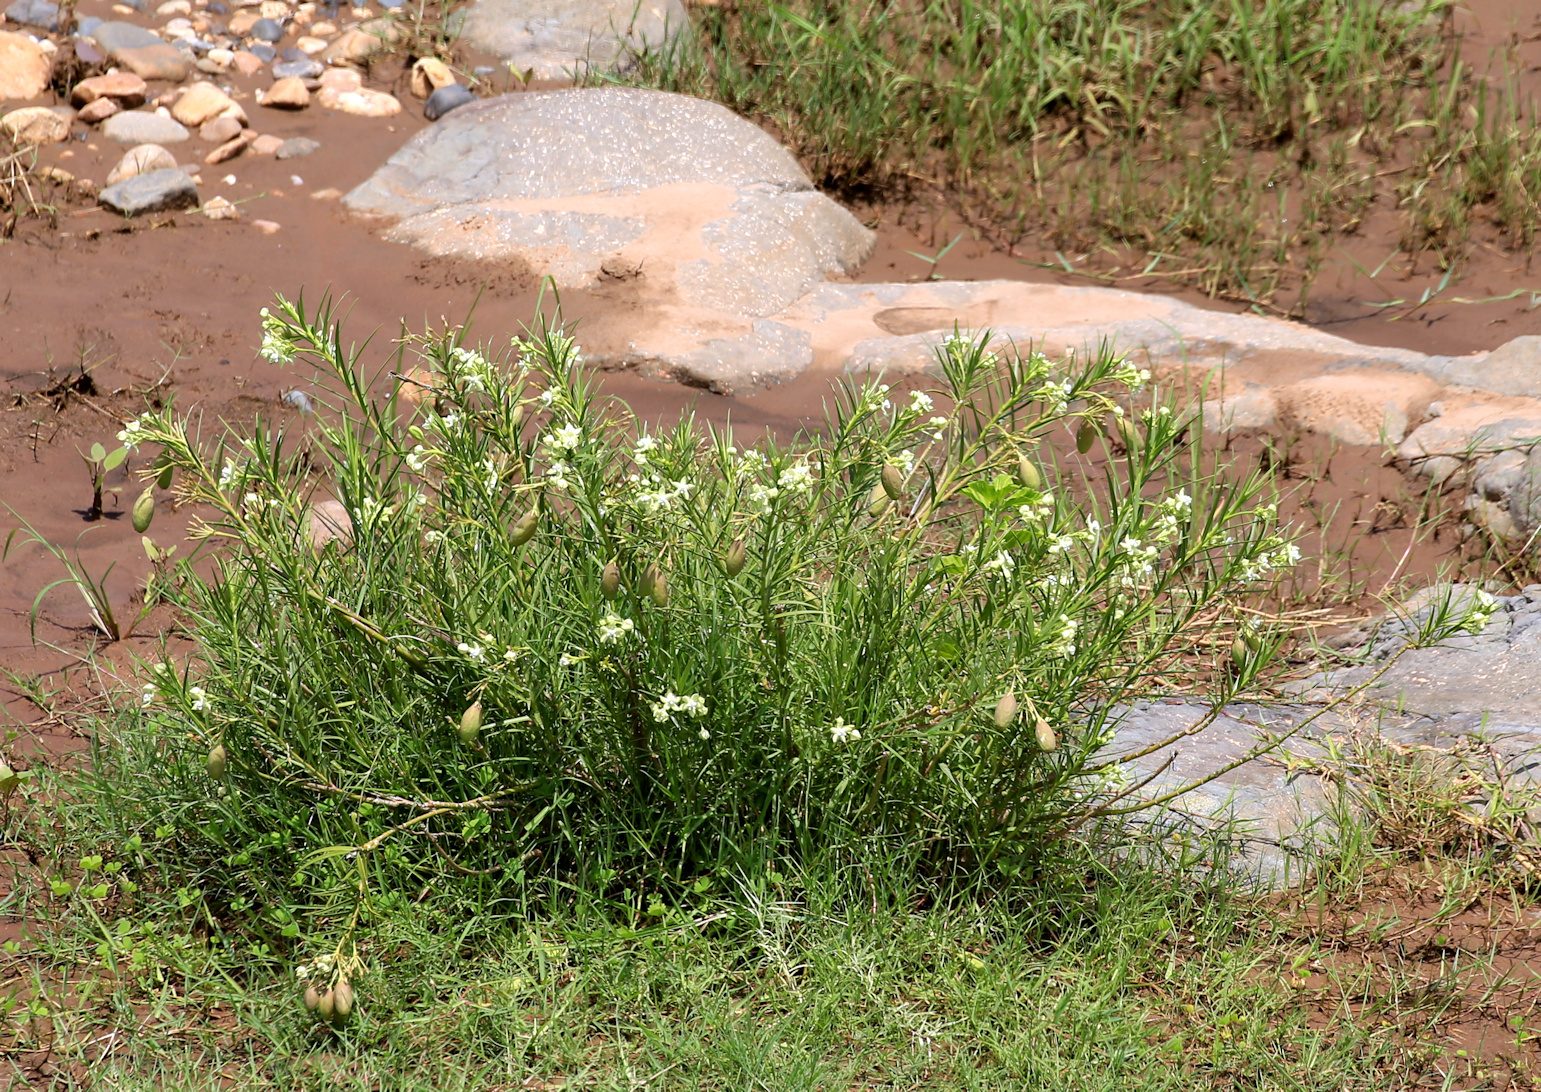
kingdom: Plantae
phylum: Tracheophyta
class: Magnoliopsida
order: Gentianales
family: Apocynaceae
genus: Kanahia
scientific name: Kanahia laniflora
